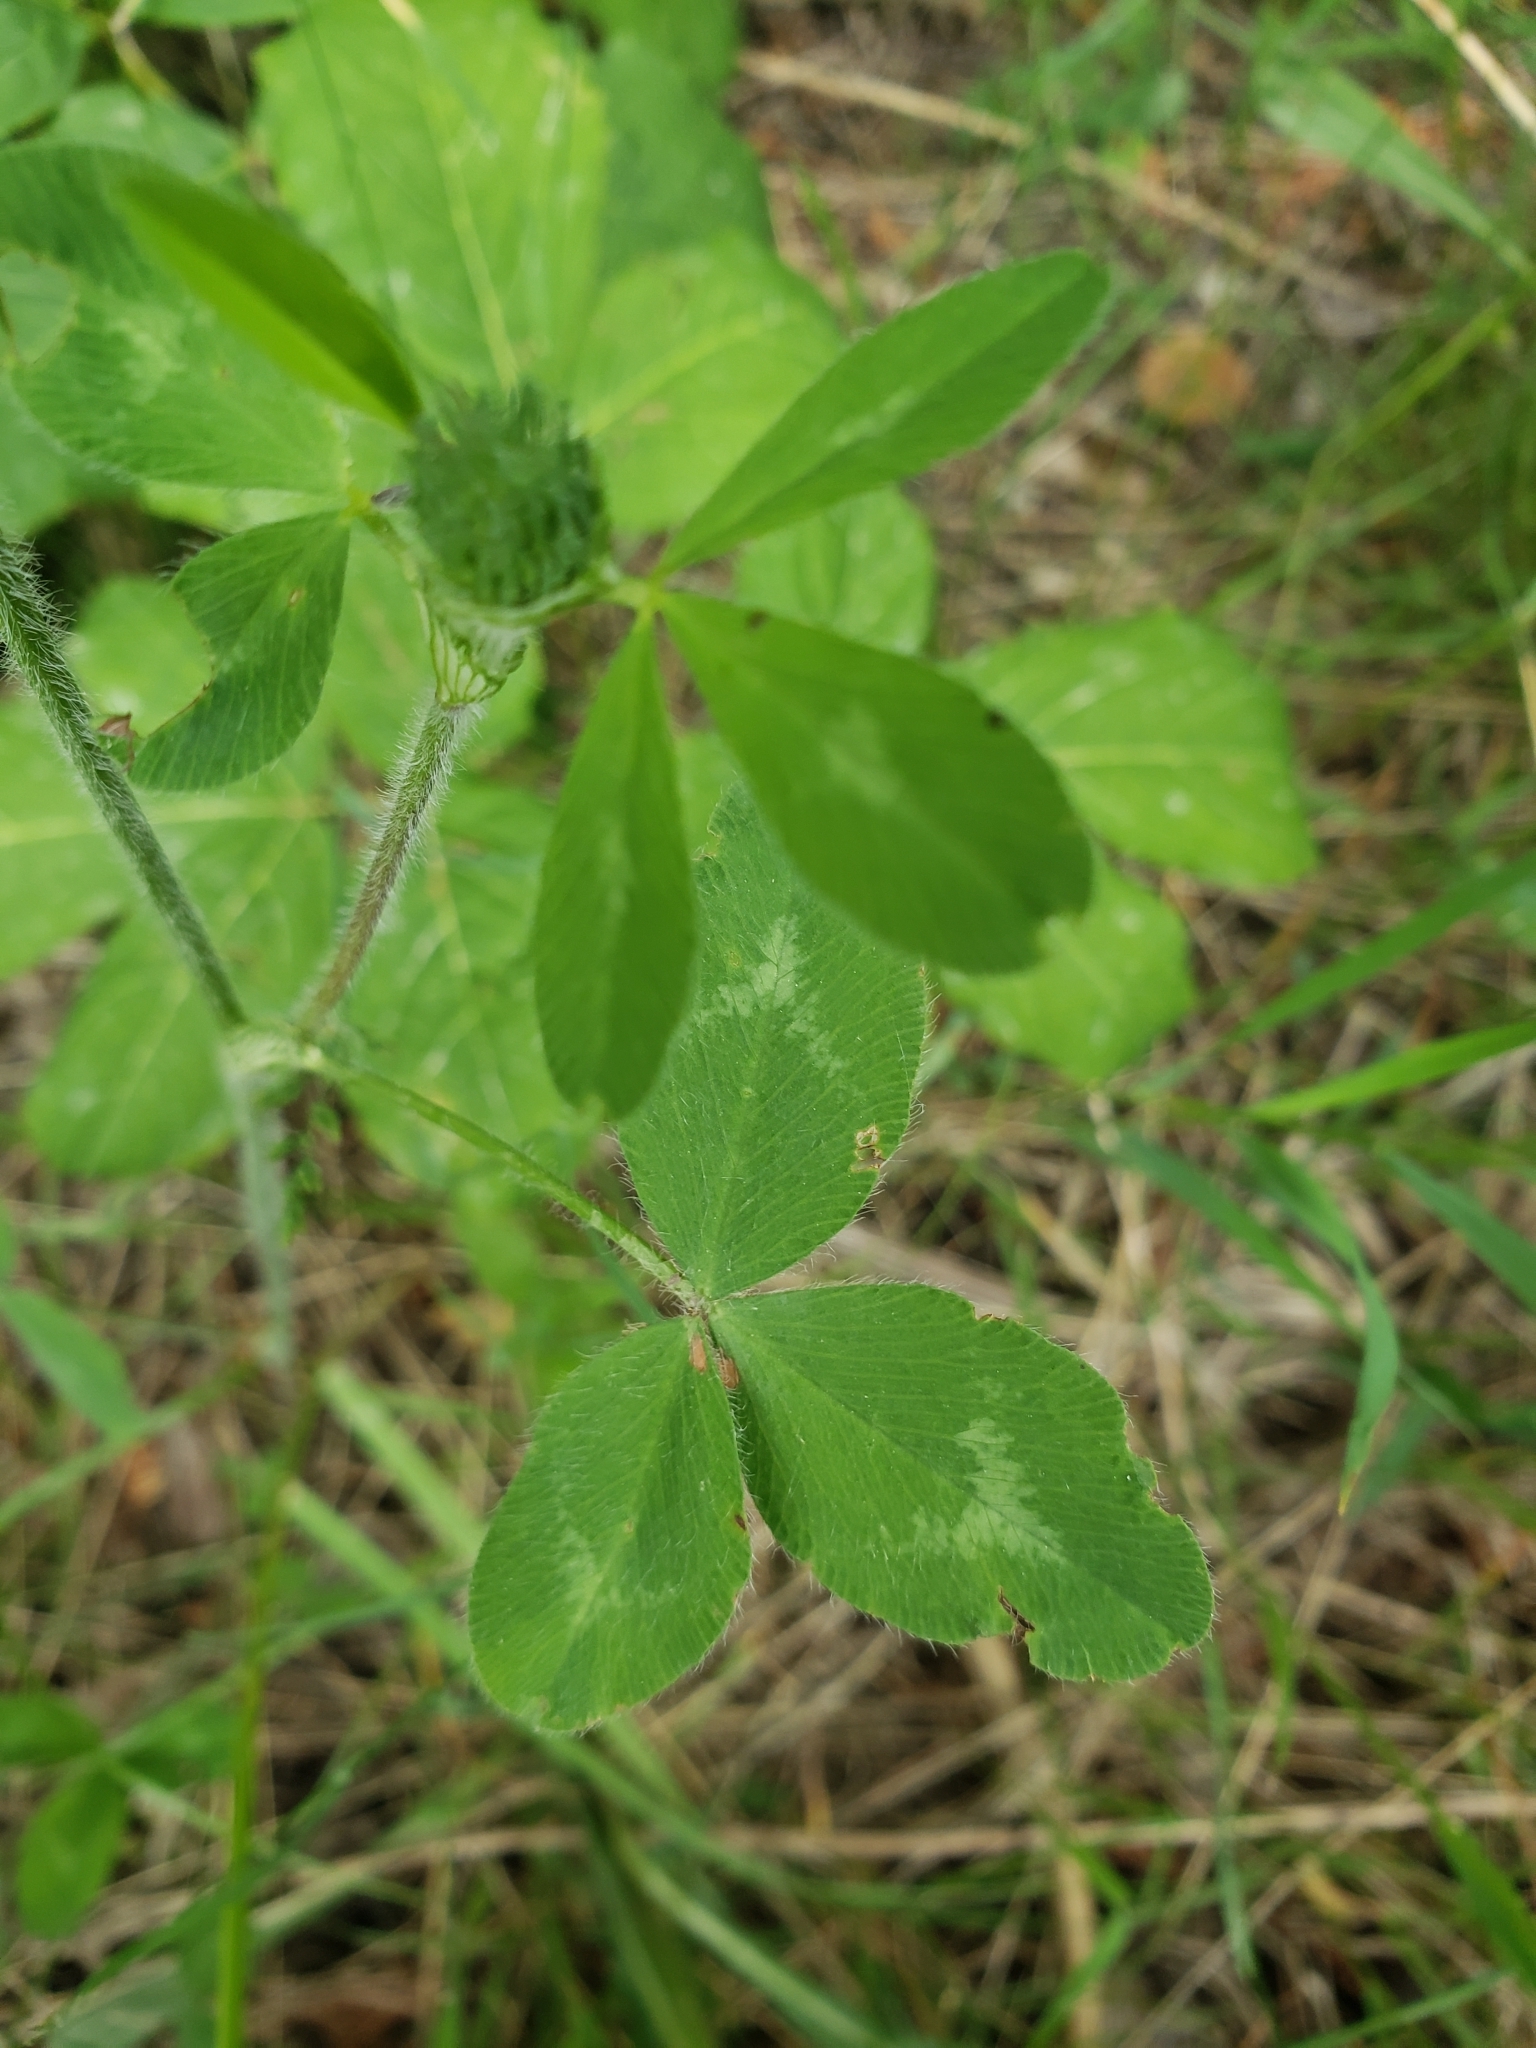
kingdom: Plantae
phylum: Tracheophyta
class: Magnoliopsida
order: Fabales
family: Fabaceae
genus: Trifolium
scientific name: Trifolium pratense
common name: Red clover
